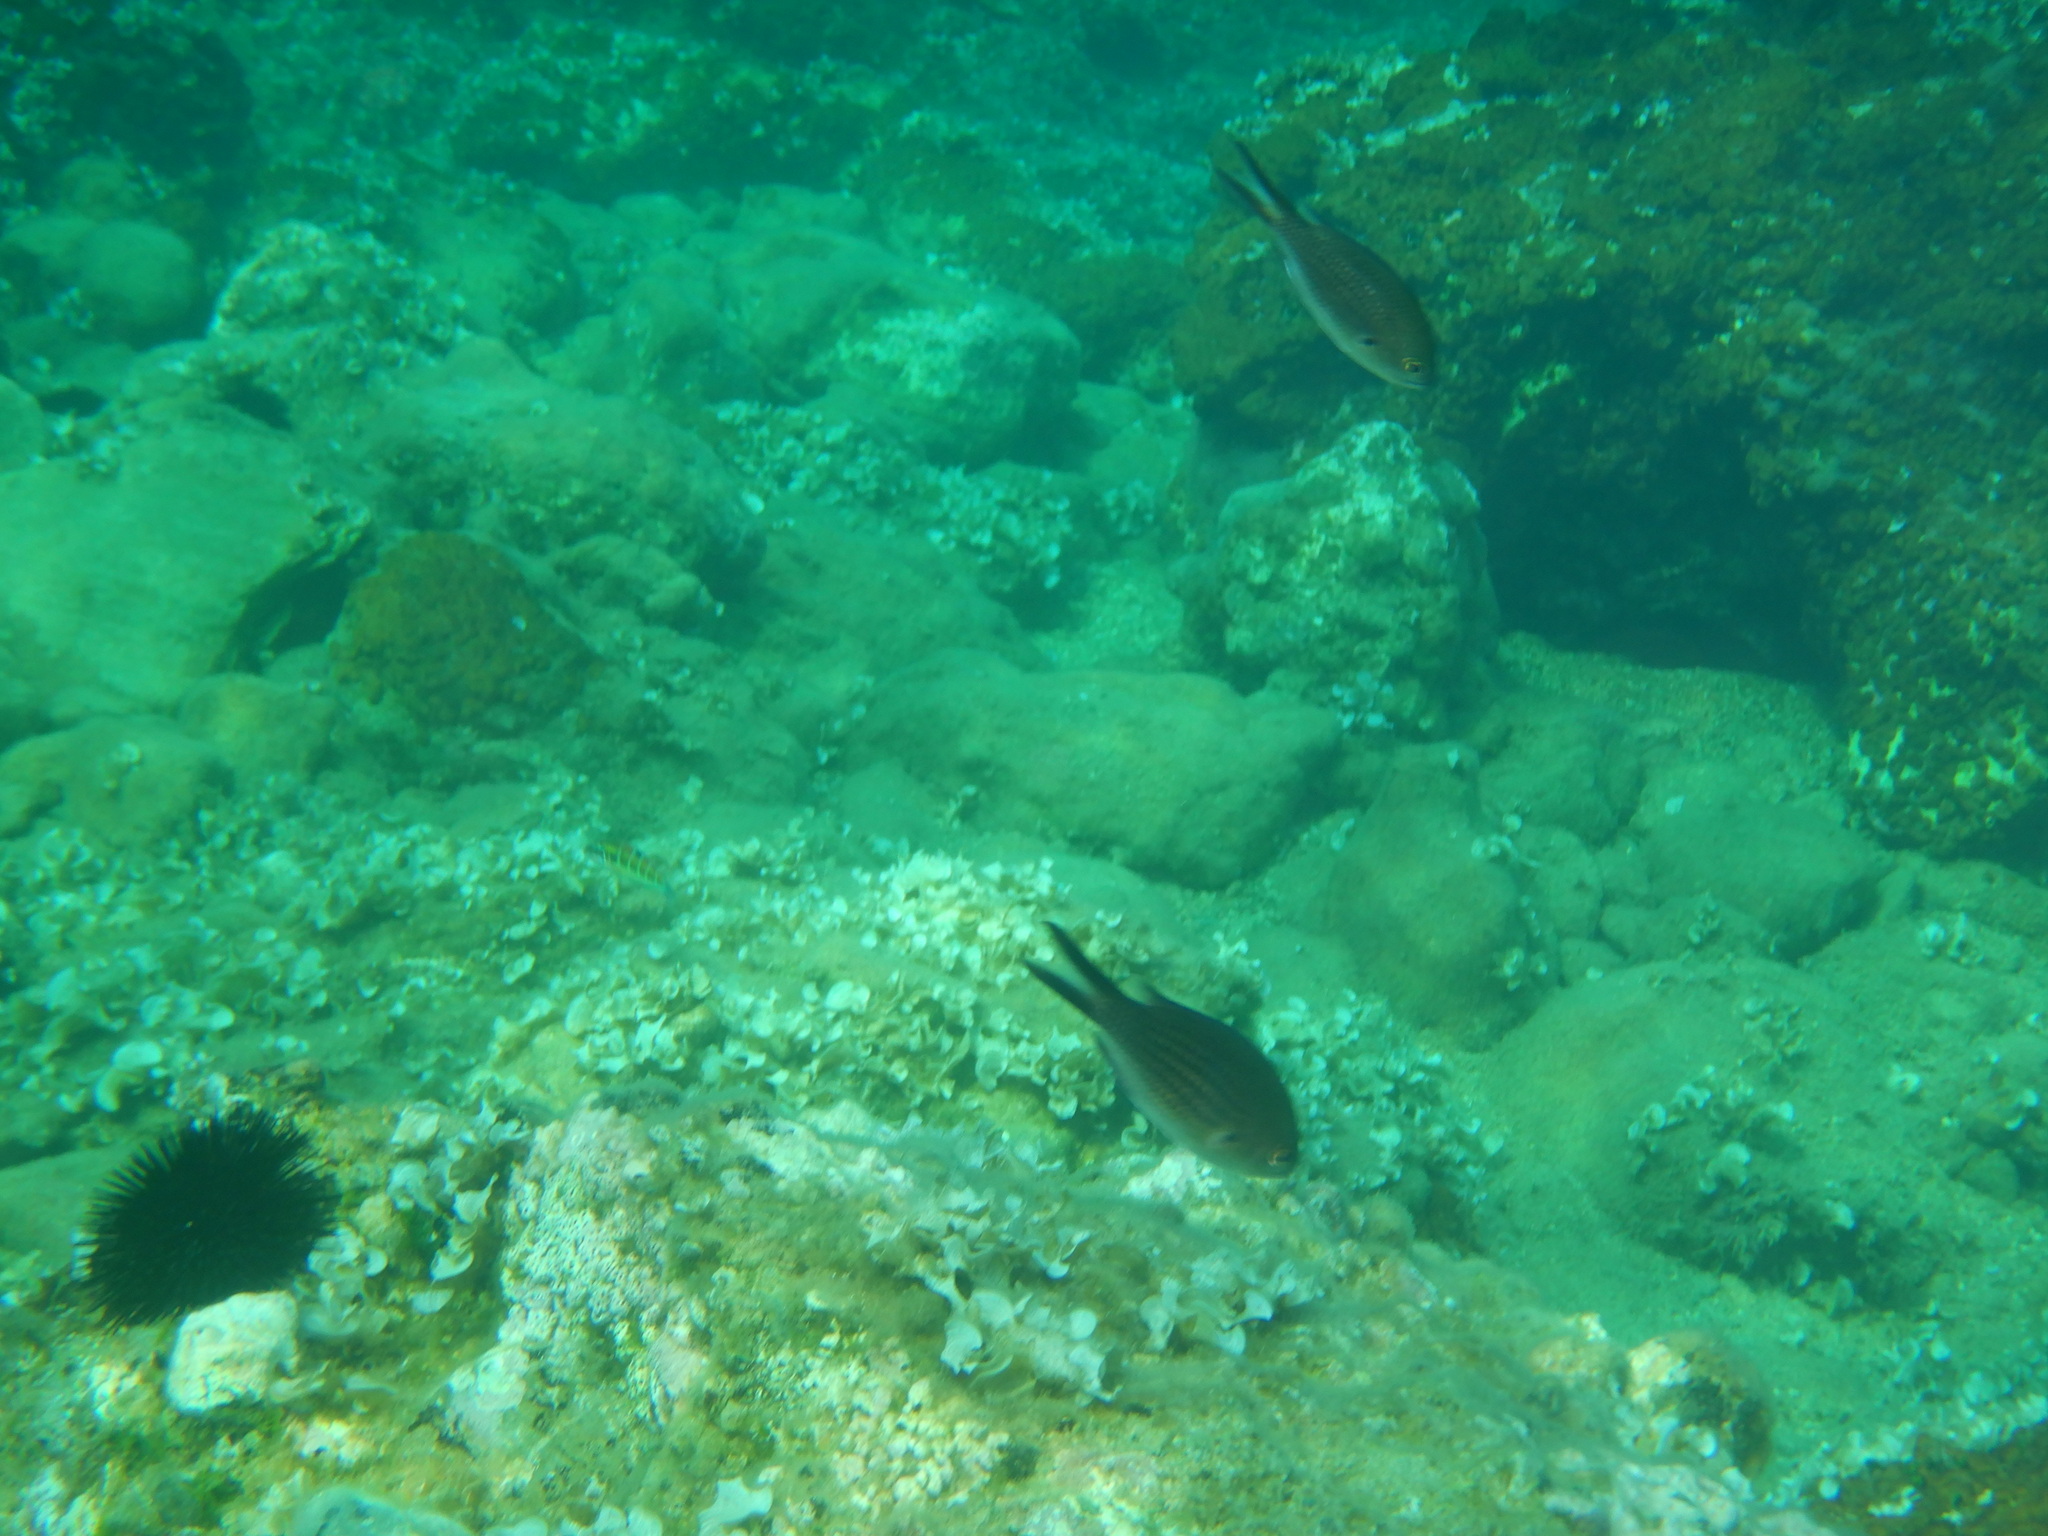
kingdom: Animalia
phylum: Chordata
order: Perciformes
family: Pomacentridae
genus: Chromis
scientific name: Chromis chromis
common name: Damselfish
